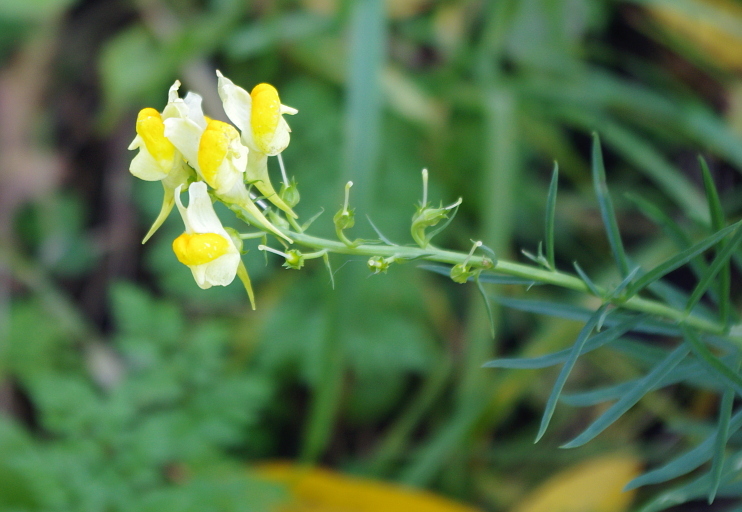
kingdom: Plantae
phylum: Tracheophyta
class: Magnoliopsida
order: Lamiales
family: Plantaginaceae
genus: Linaria
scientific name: Linaria vulgaris
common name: Butter and eggs
